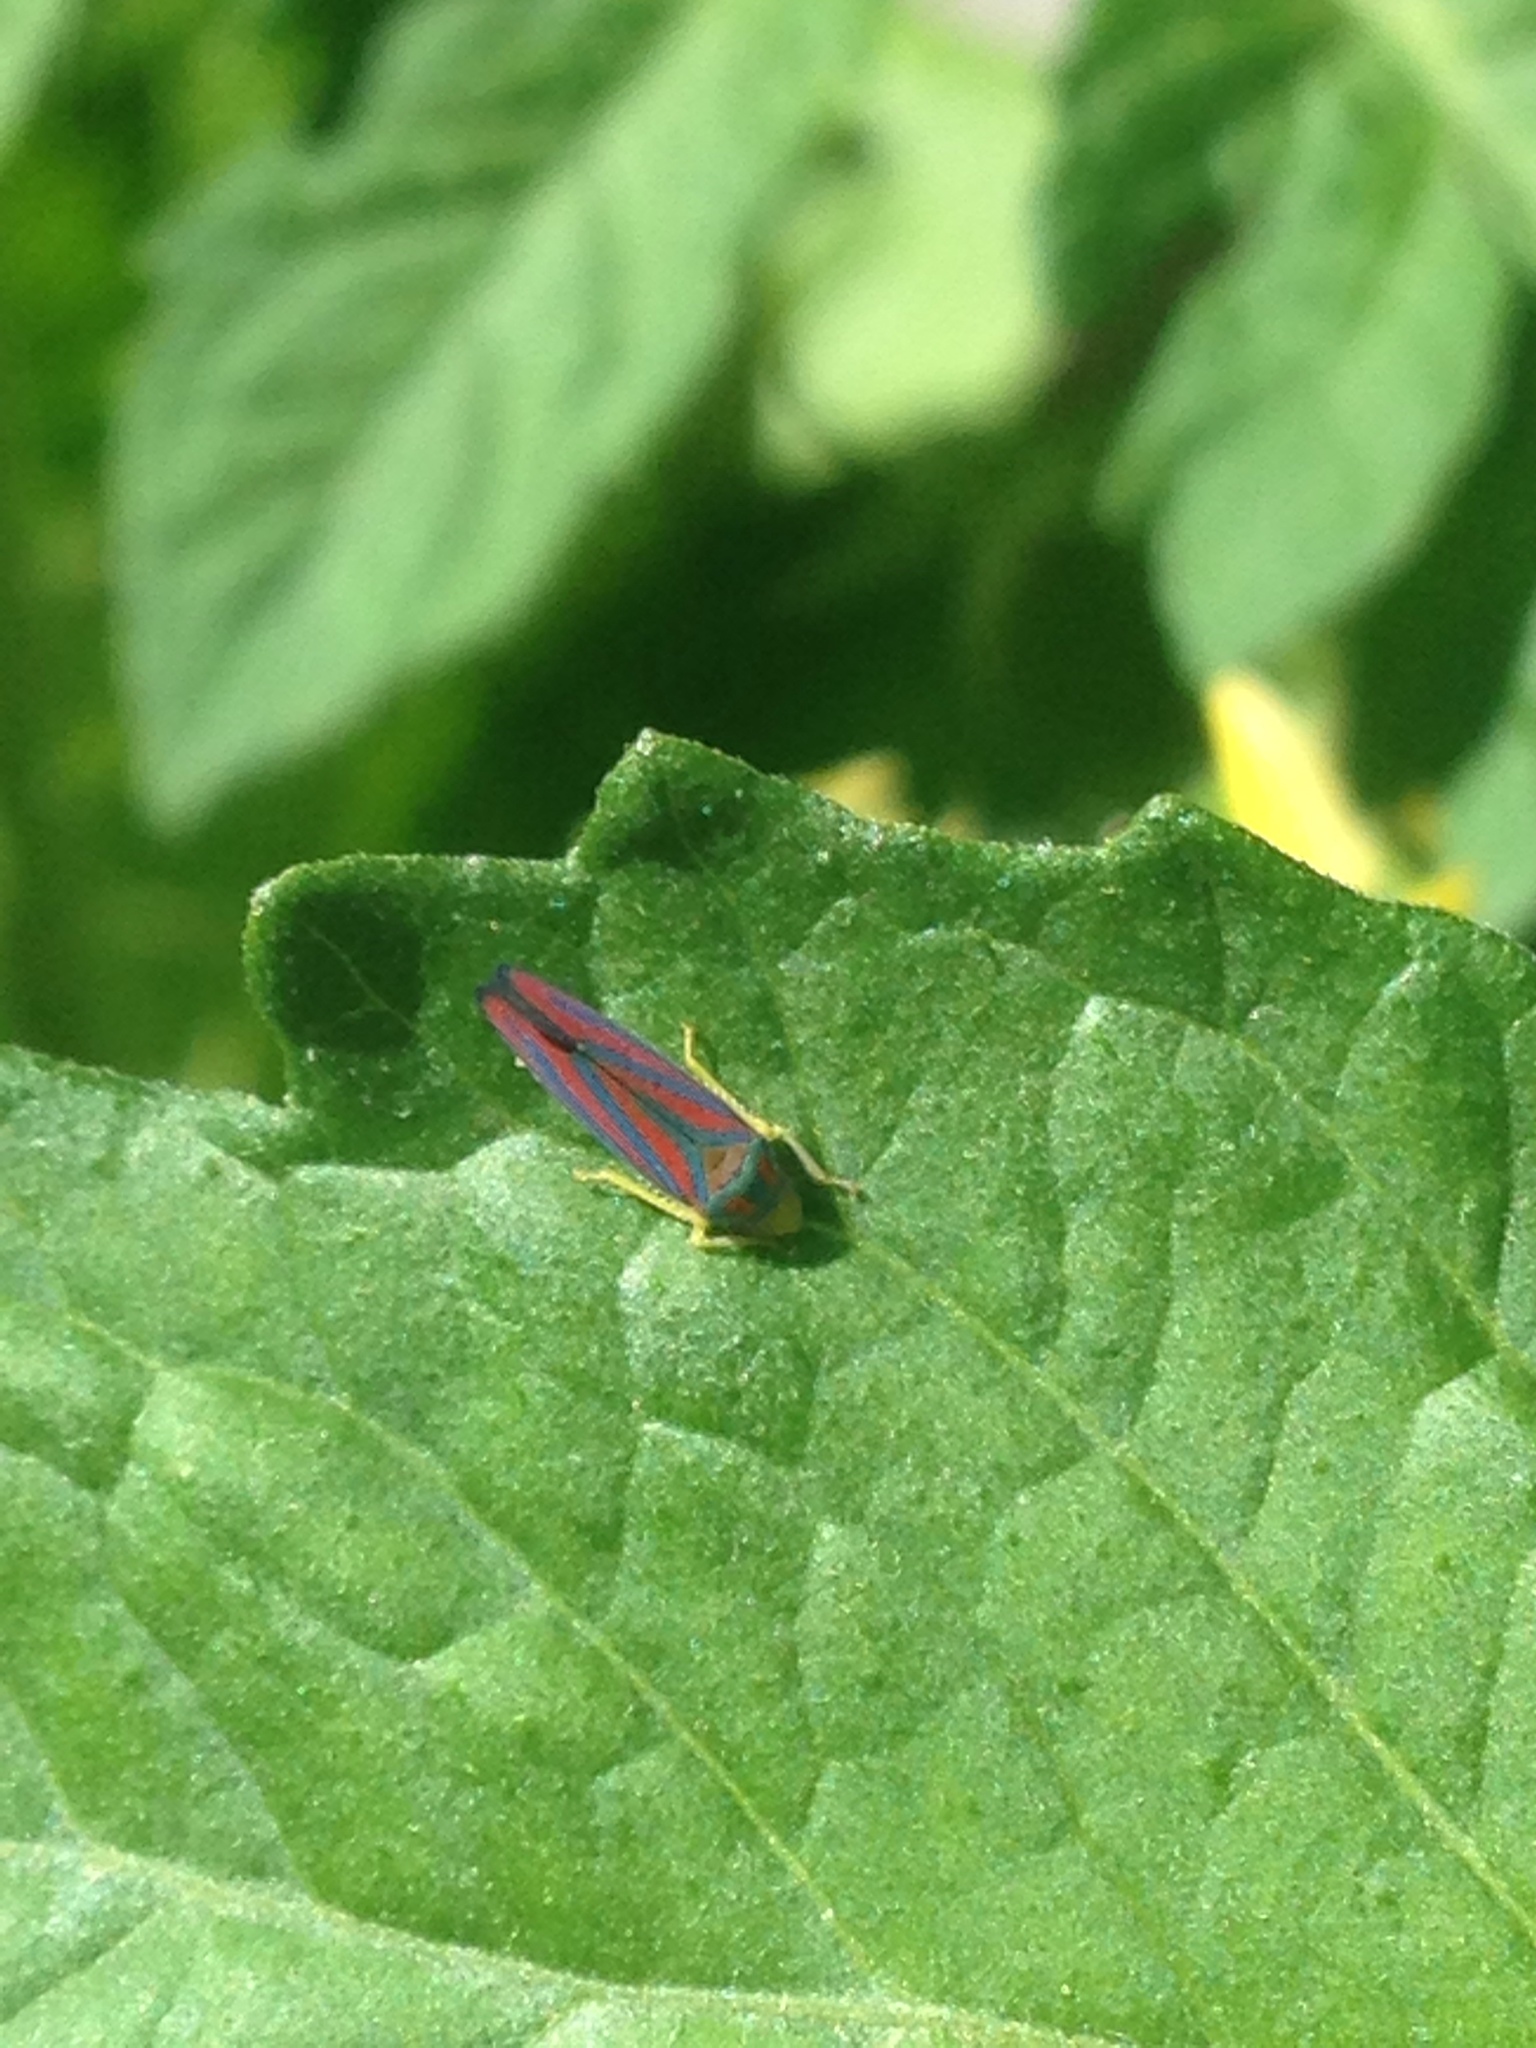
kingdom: Animalia
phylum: Arthropoda
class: Insecta
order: Hemiptera
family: Cicadellidae
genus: Graphocephala
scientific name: Graphocephala coccinea
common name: Candy-striped leafhopper
